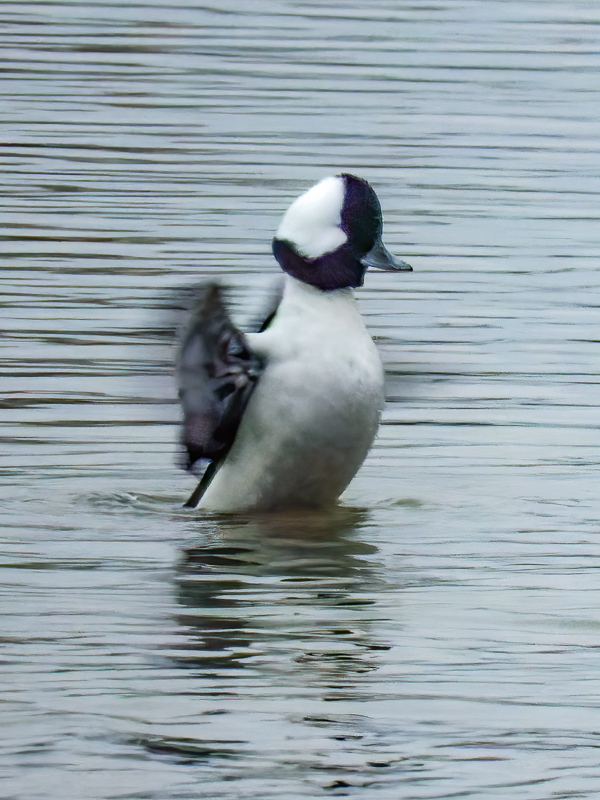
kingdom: Animalia
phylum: Chordata
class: Aves
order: Anseriformes
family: Anatidae
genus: Bucephala
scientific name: Bucephala albeola
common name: Bufflehead
